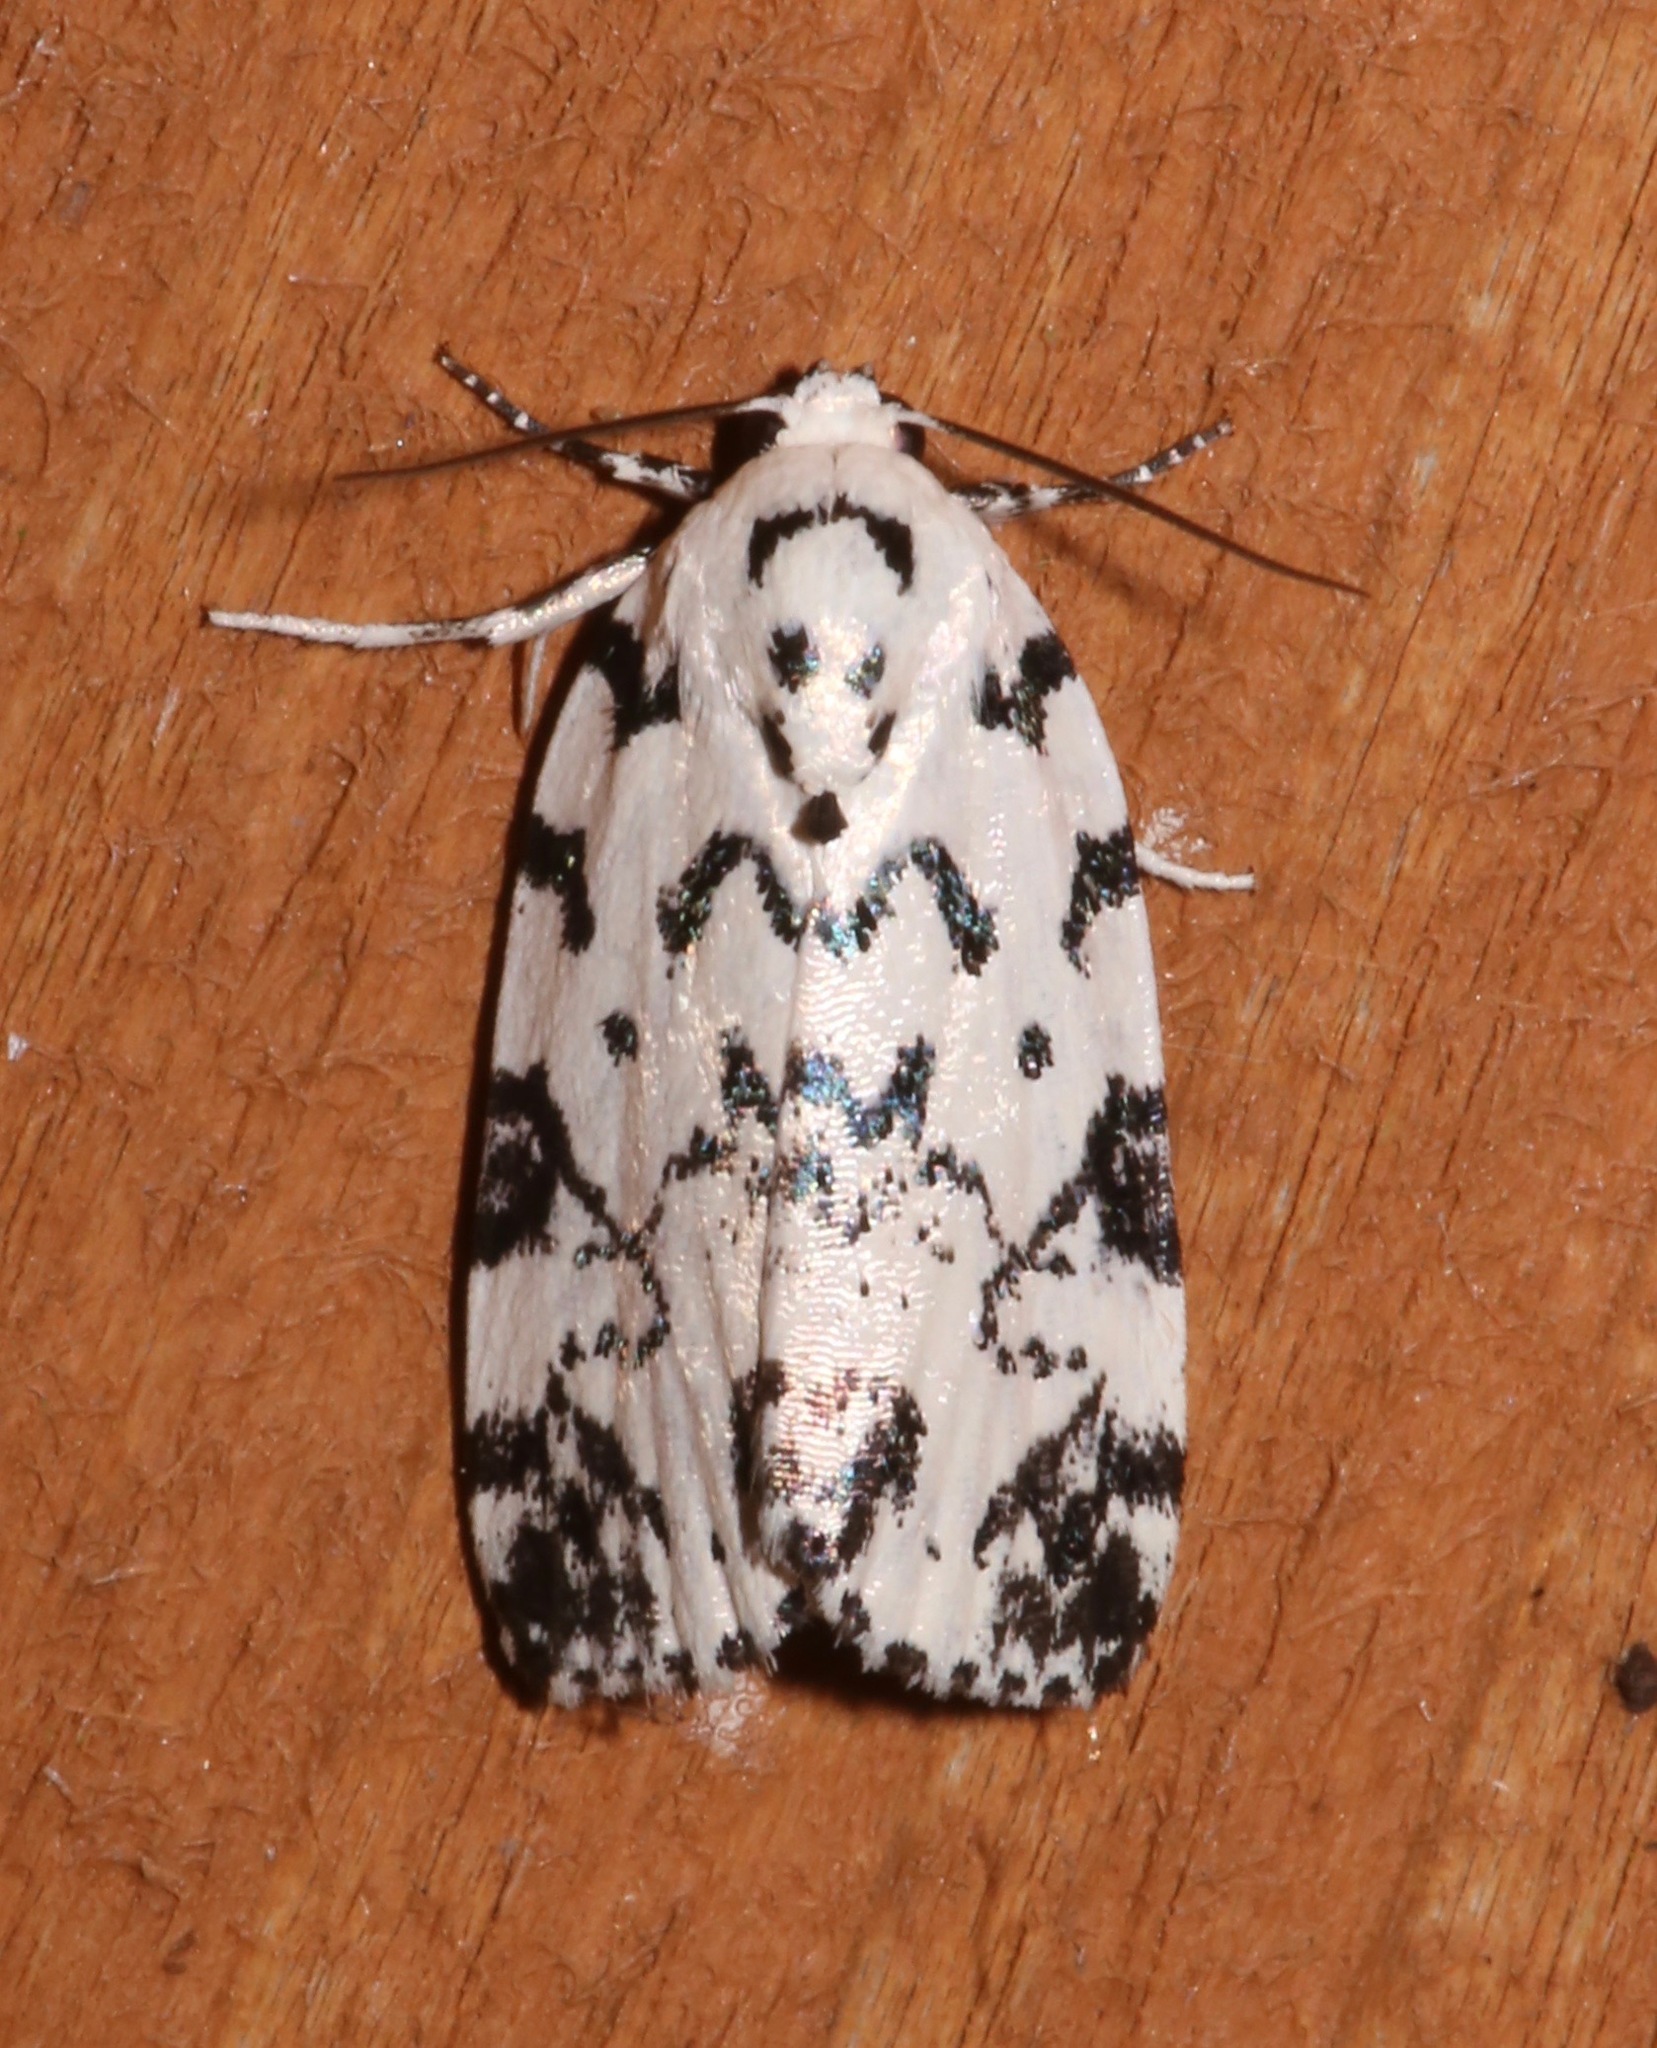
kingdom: Animalia
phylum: Arthropoda
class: Insecta
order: Lepidoptera
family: Noctuidae
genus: Polygrammate
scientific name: Polygrammate hebraeicum
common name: Hebrew moth
